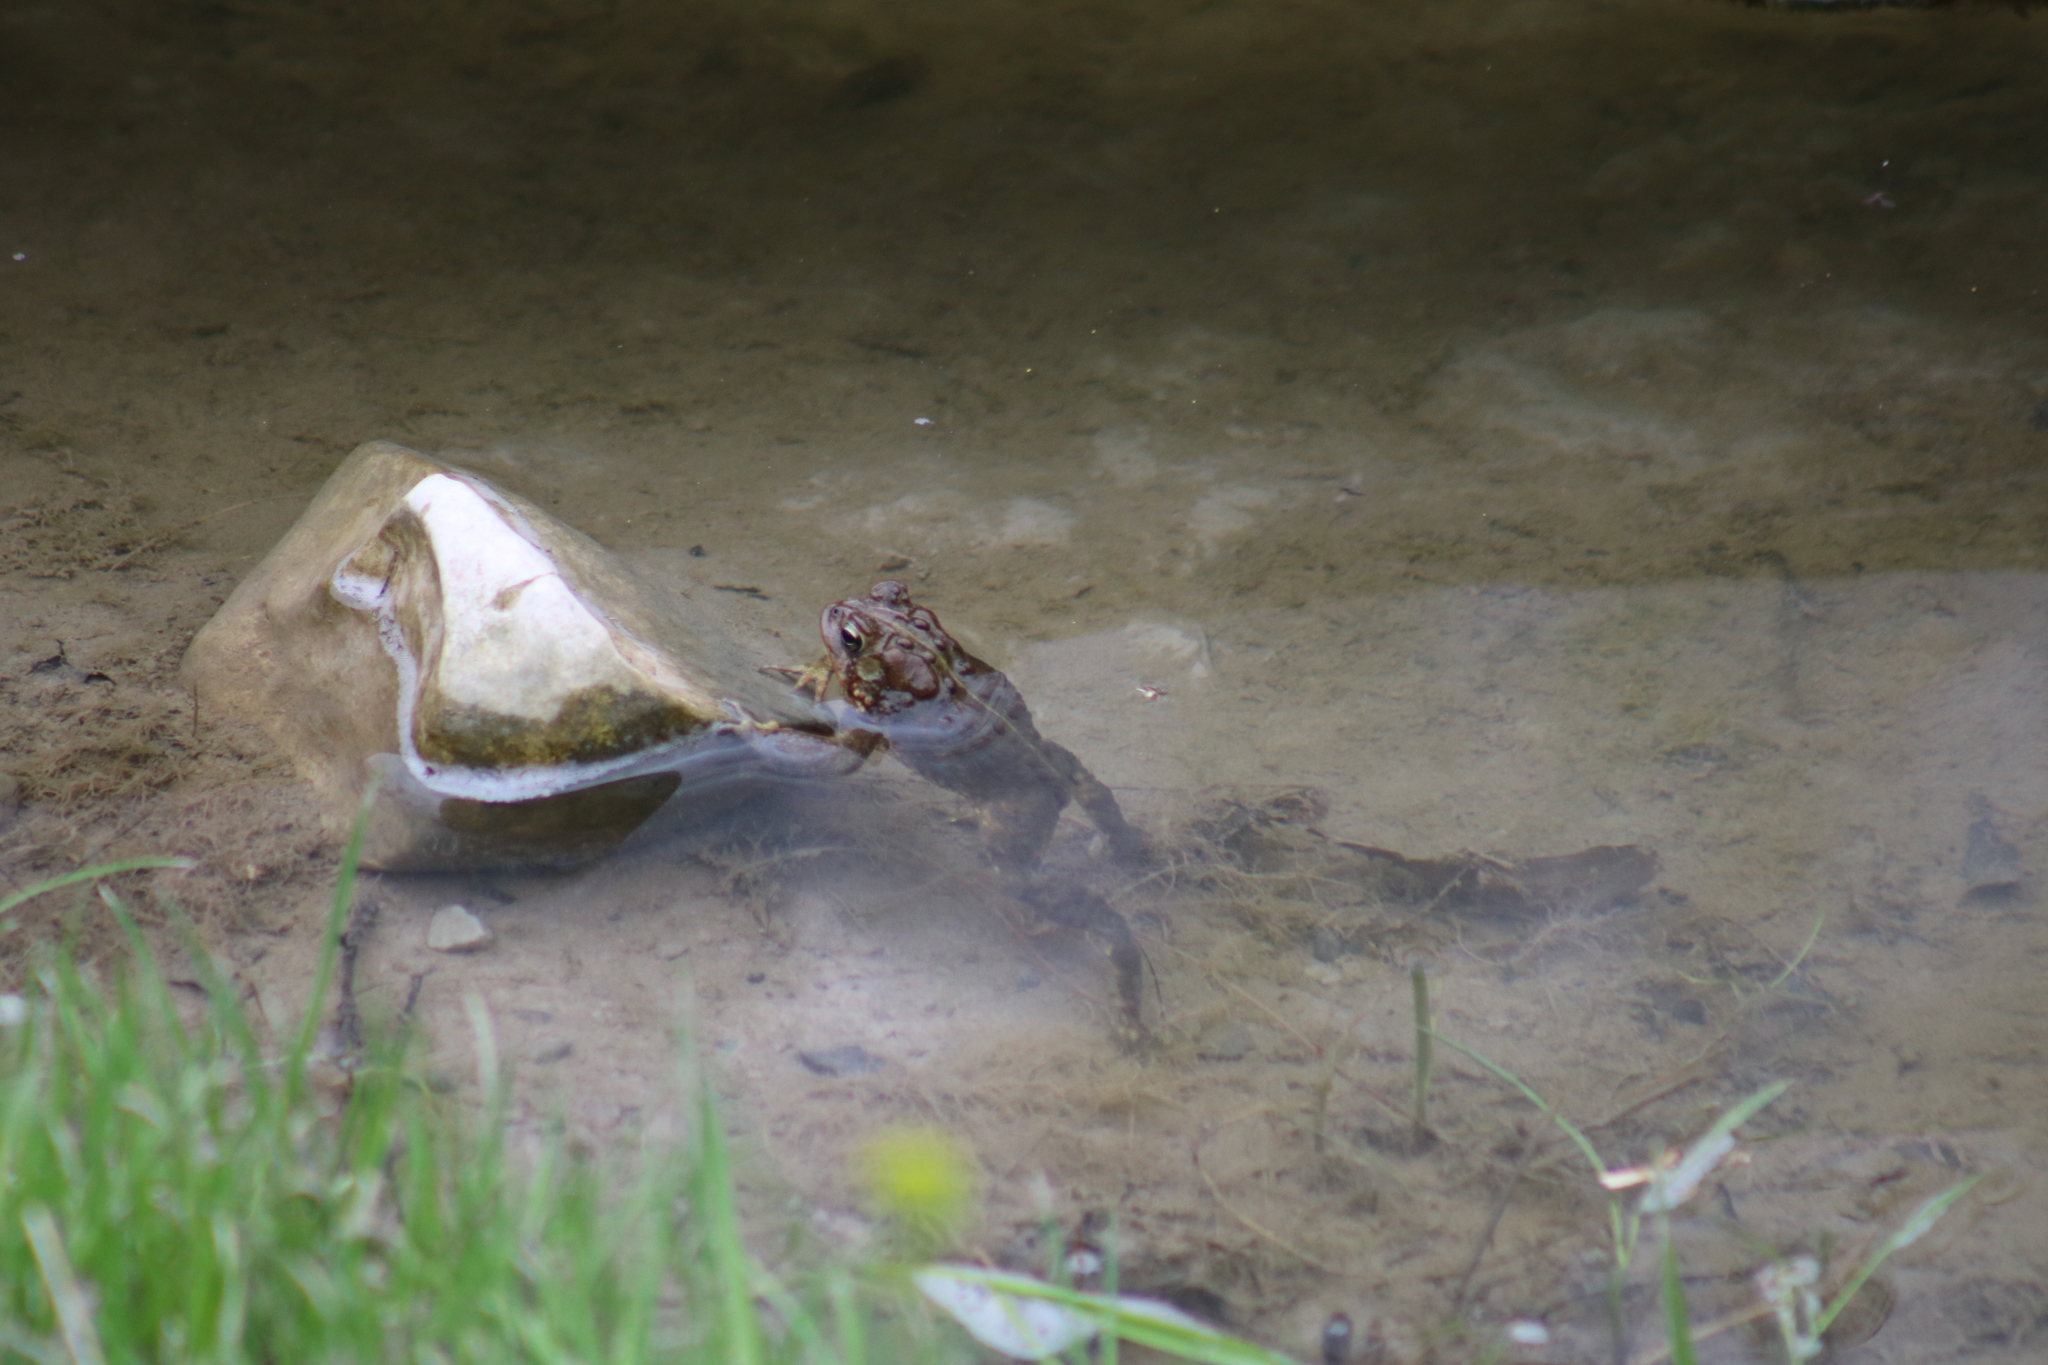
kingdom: Animalia
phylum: Chordata
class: Amphibia
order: Anura
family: Bufonidae
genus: Anaxyrus
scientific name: Anaxyrus americanus
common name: American toad
